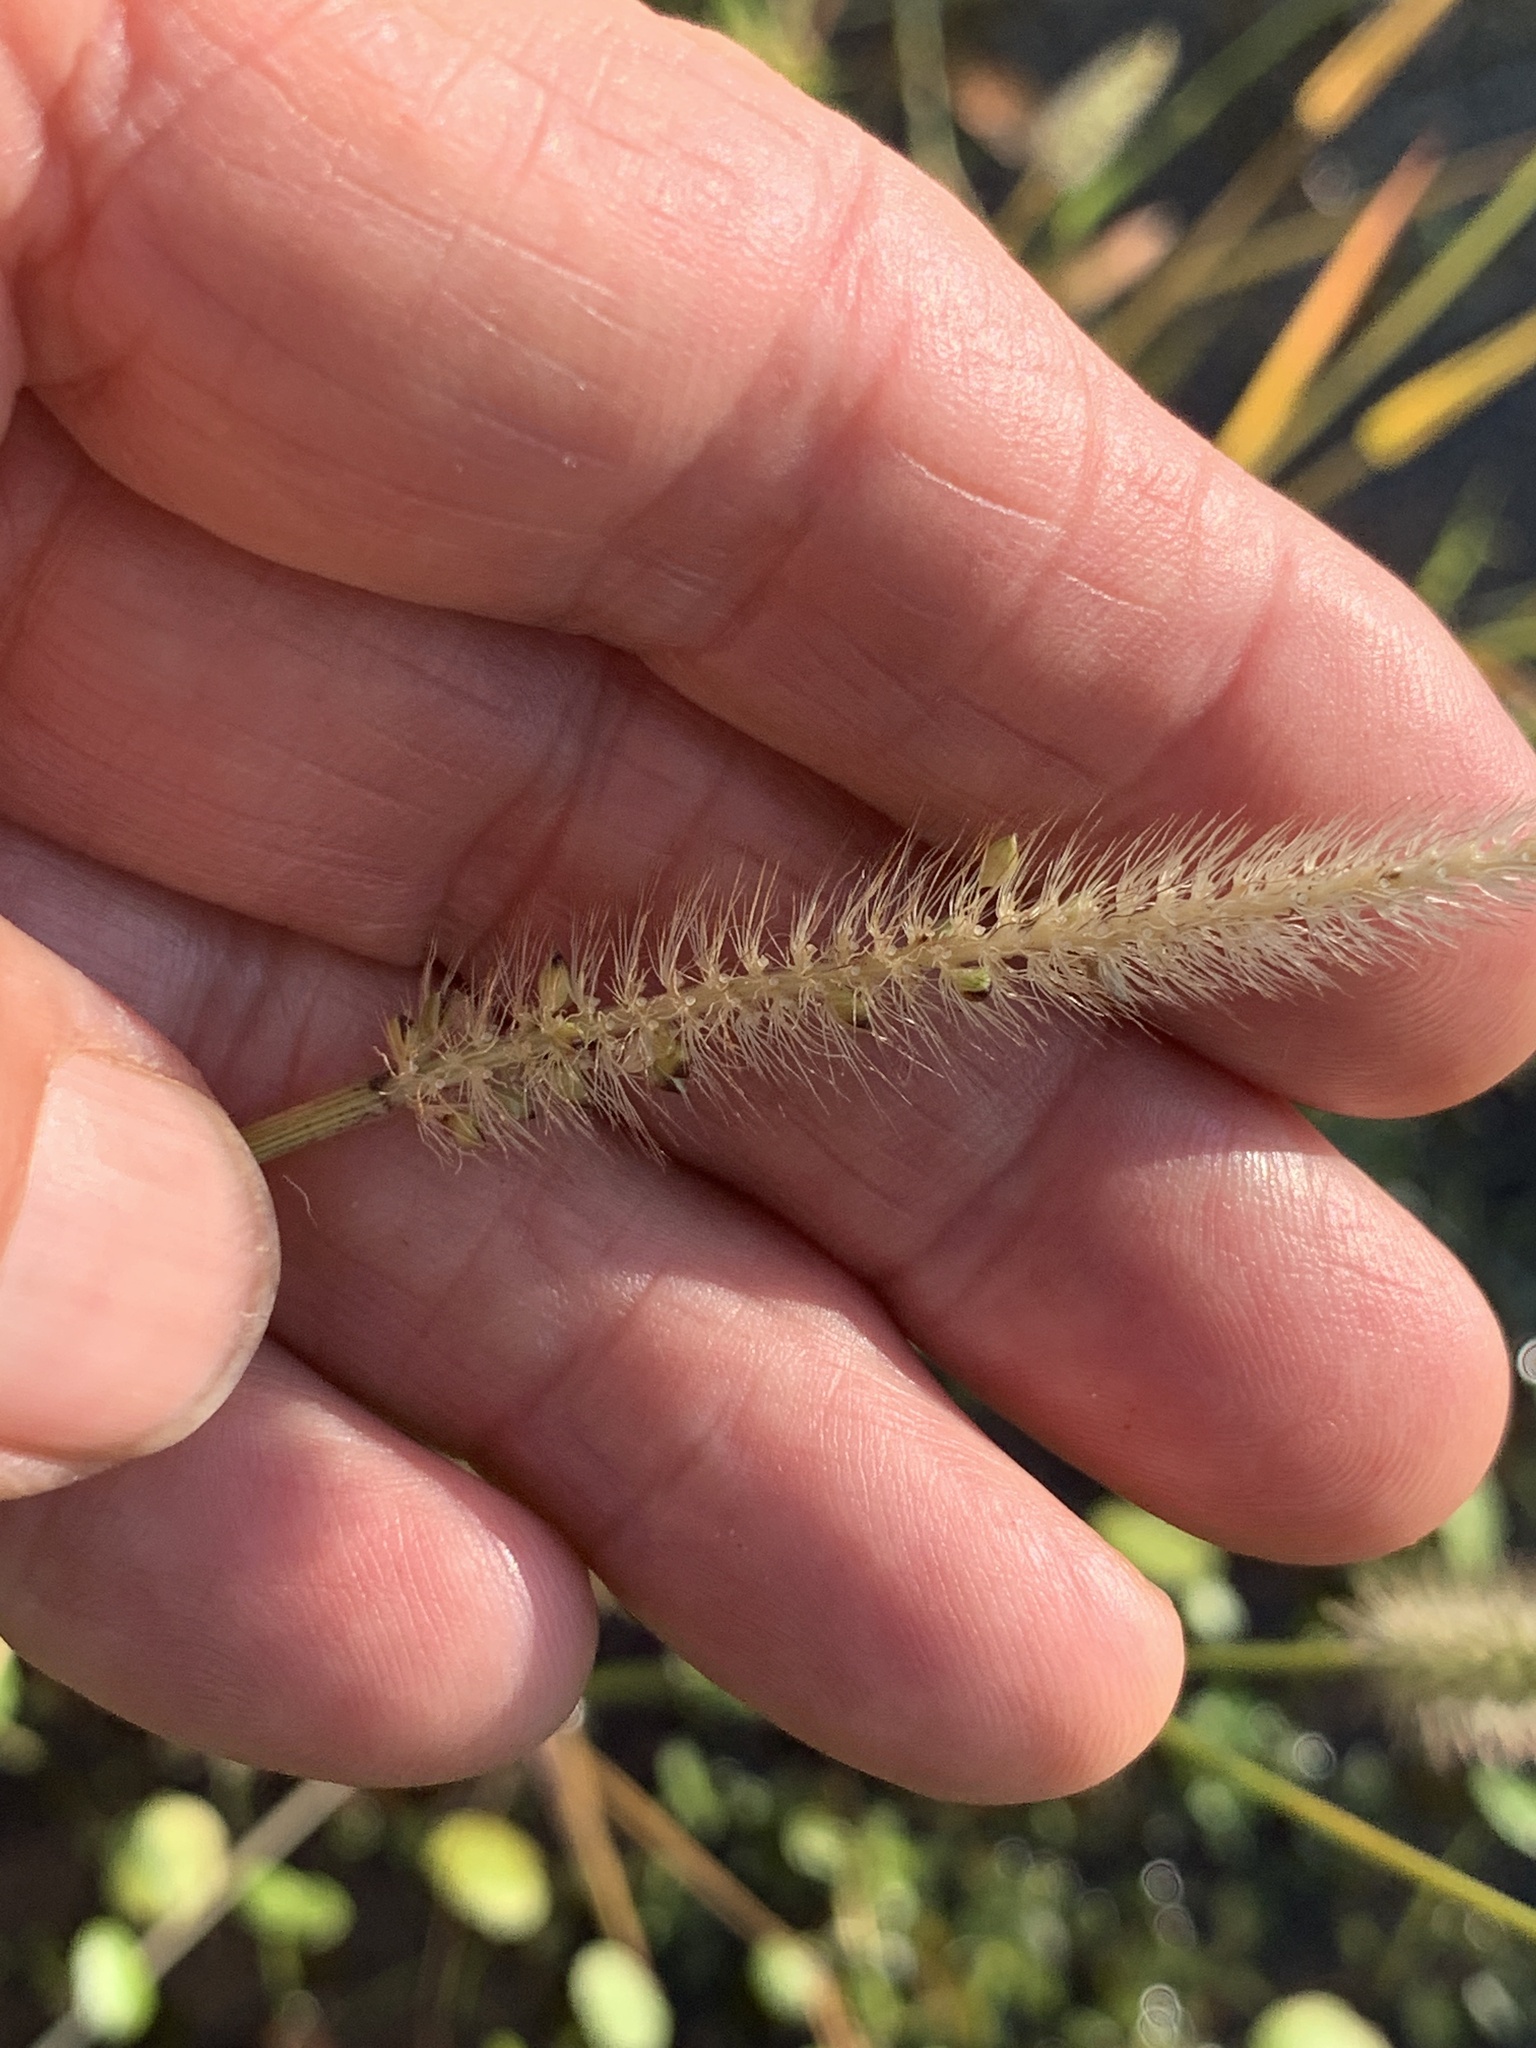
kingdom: Plantae
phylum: Tracheophyta
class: Liliopsida
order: Poales
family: Poaceae
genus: Setaria
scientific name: Setaria parviflora
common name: Knotroot bristle-grass
